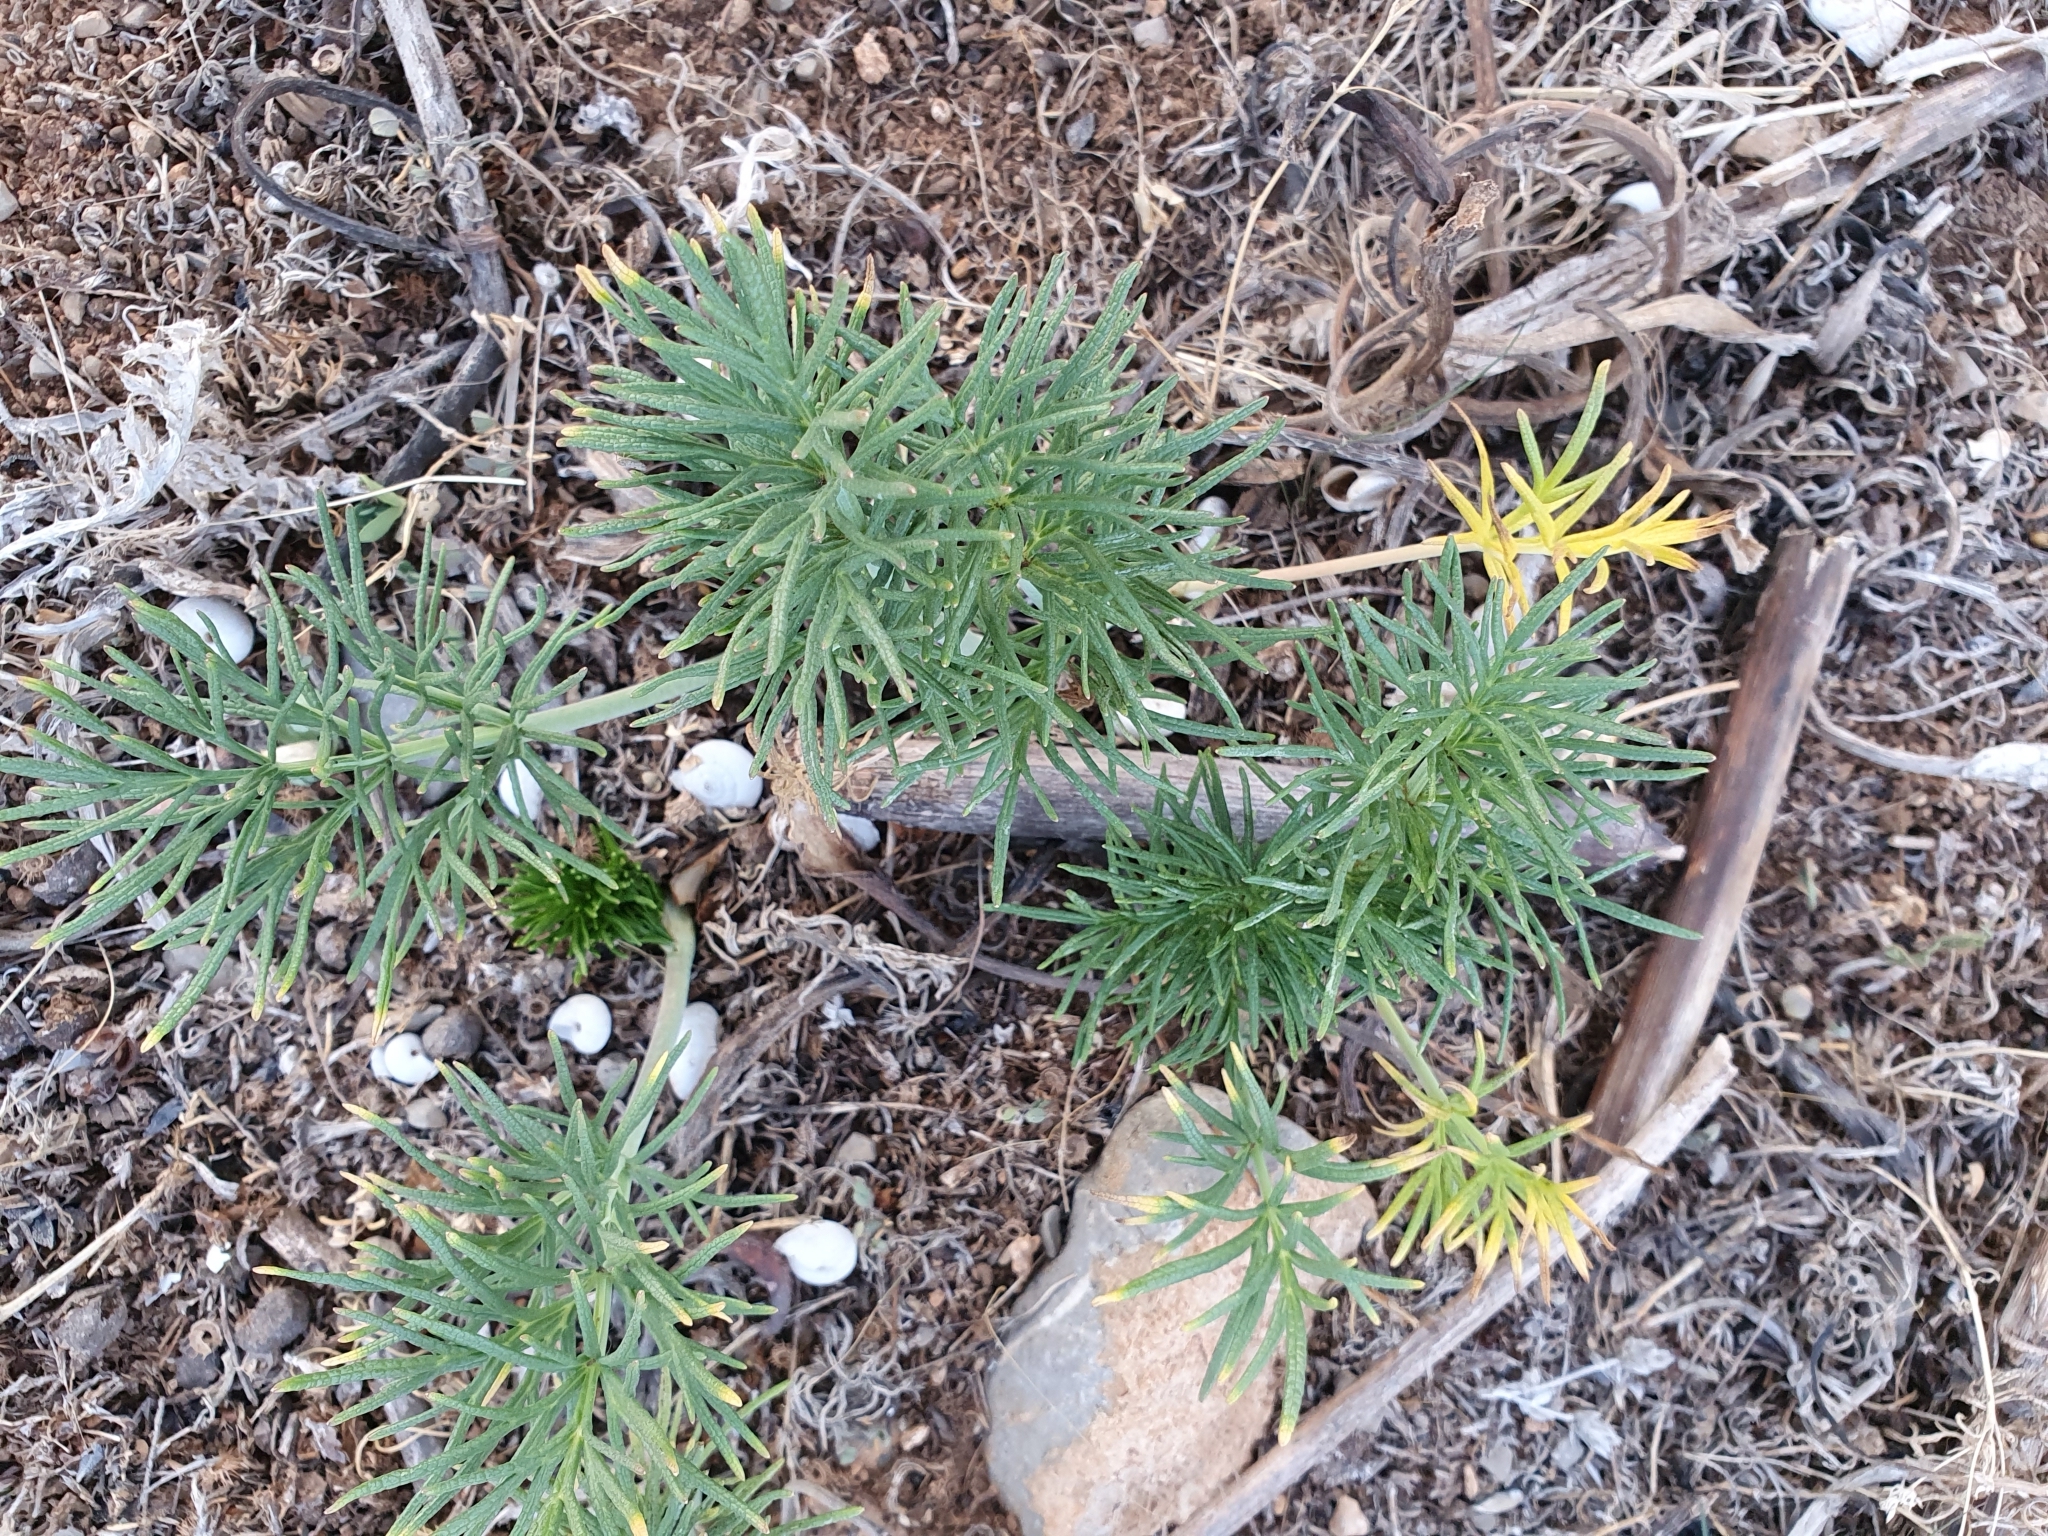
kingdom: Plantae
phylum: Tracheophyta
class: Magnoliopsida
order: Apiales
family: Apiaceae
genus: Thapsia
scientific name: Thapsia garganica
